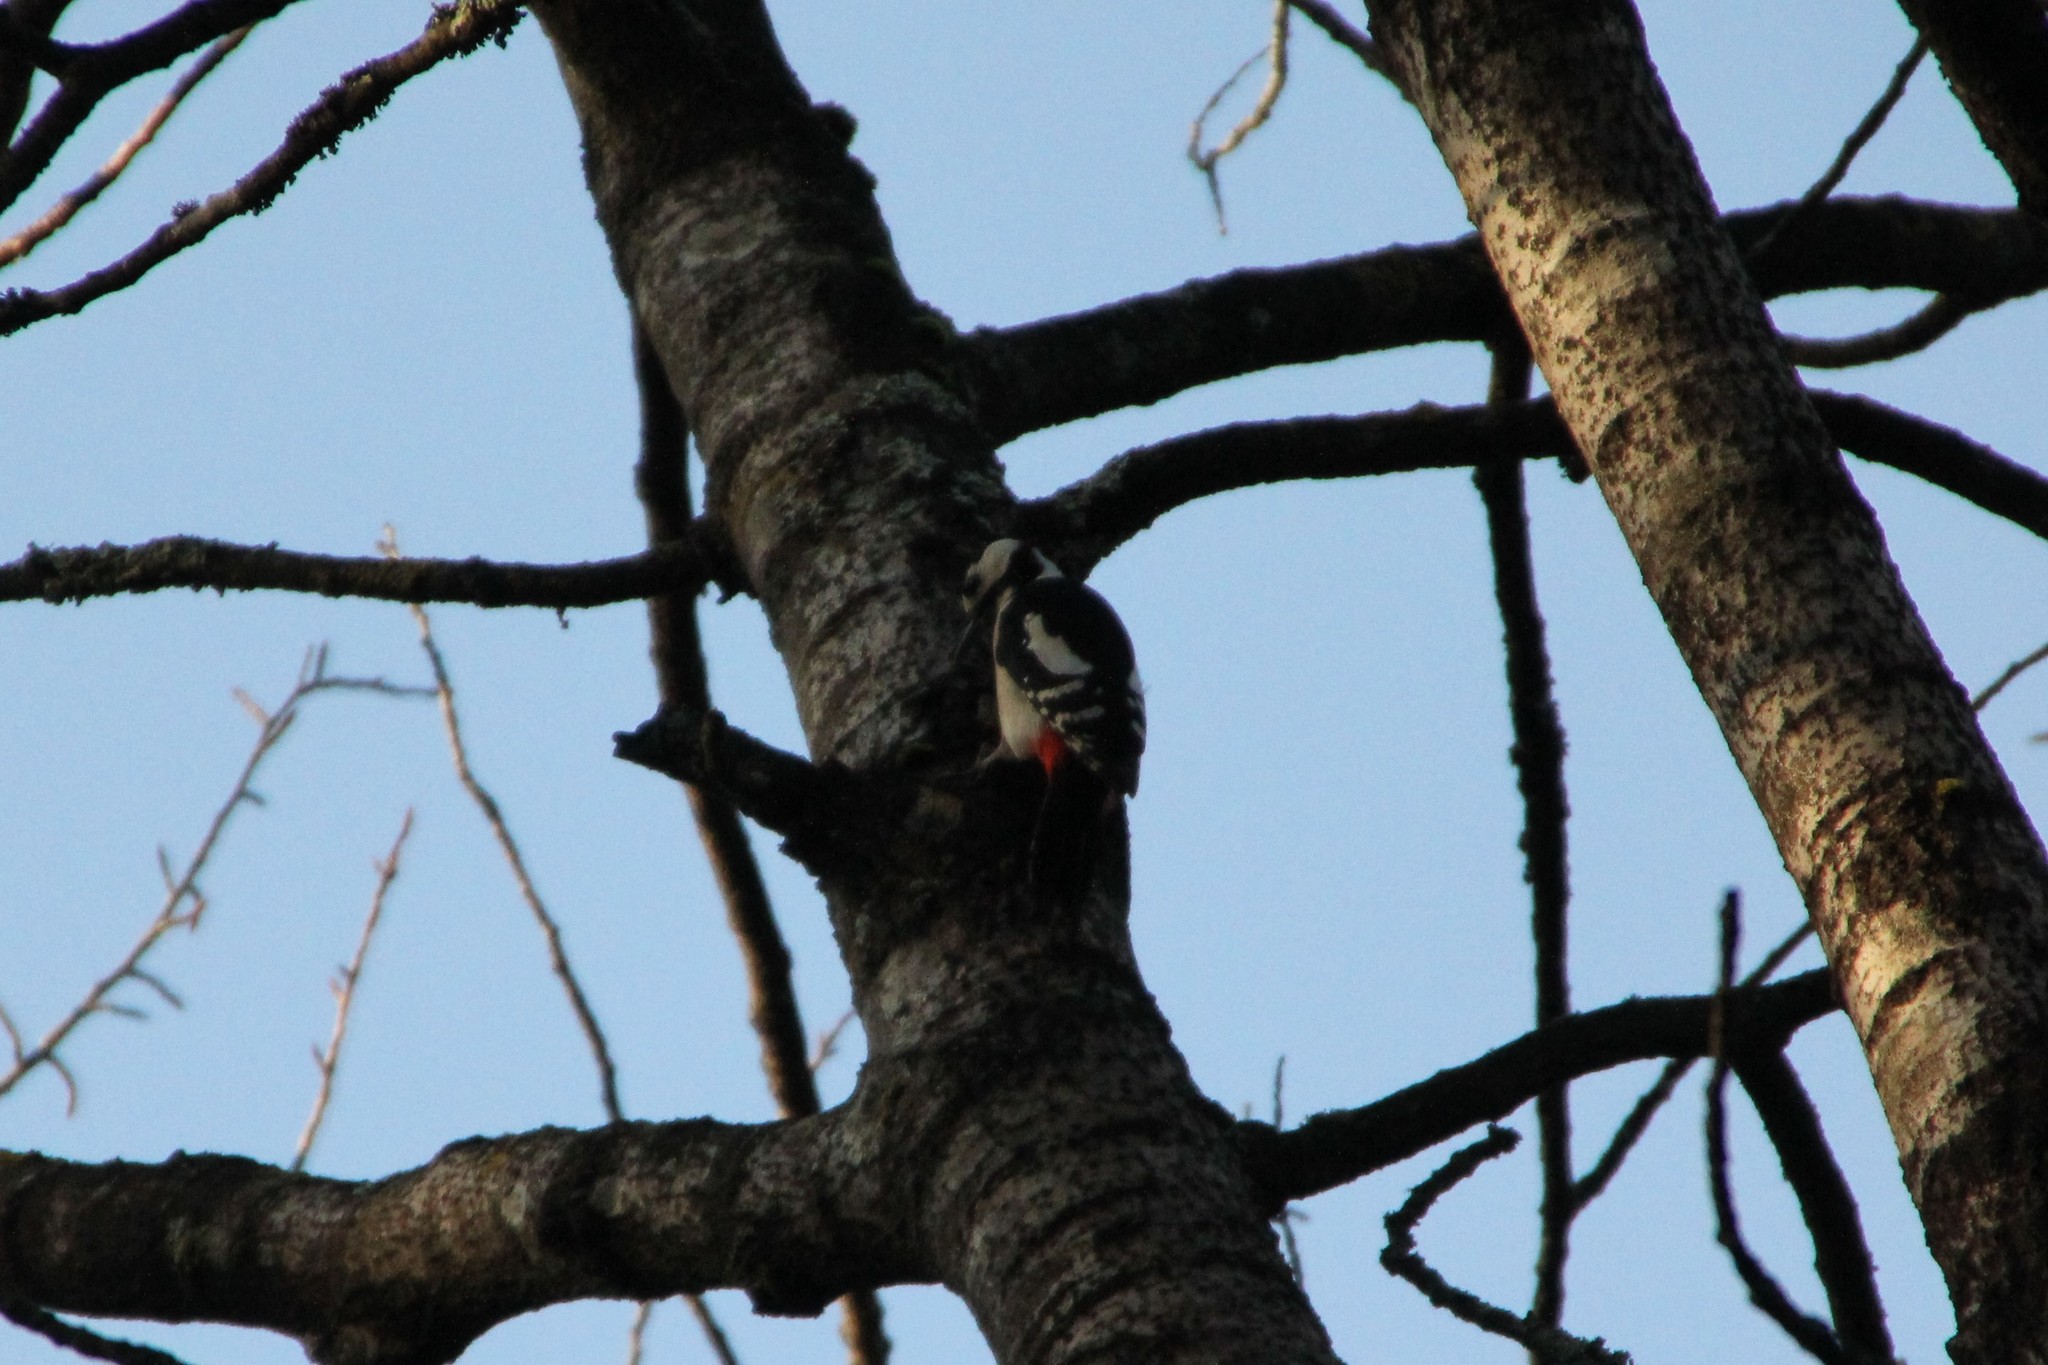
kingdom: Animalia
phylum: Chordata
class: Aves
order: Piciformes
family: Picidae
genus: Dendrocopos
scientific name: Dendrocopos major
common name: Great spotted woodpecker
